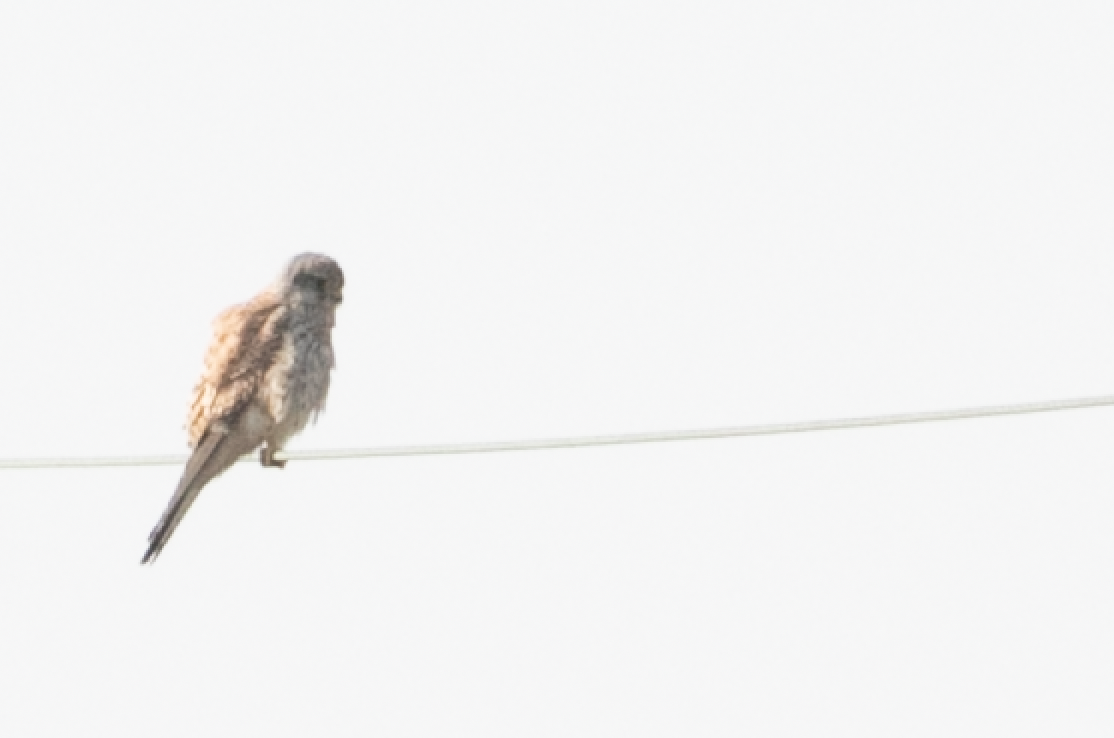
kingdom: Animalia
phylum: Chordata
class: Aves
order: Falconiformes
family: Falconidae
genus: Falco
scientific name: Falco tinnunculus
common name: Common kestrel
